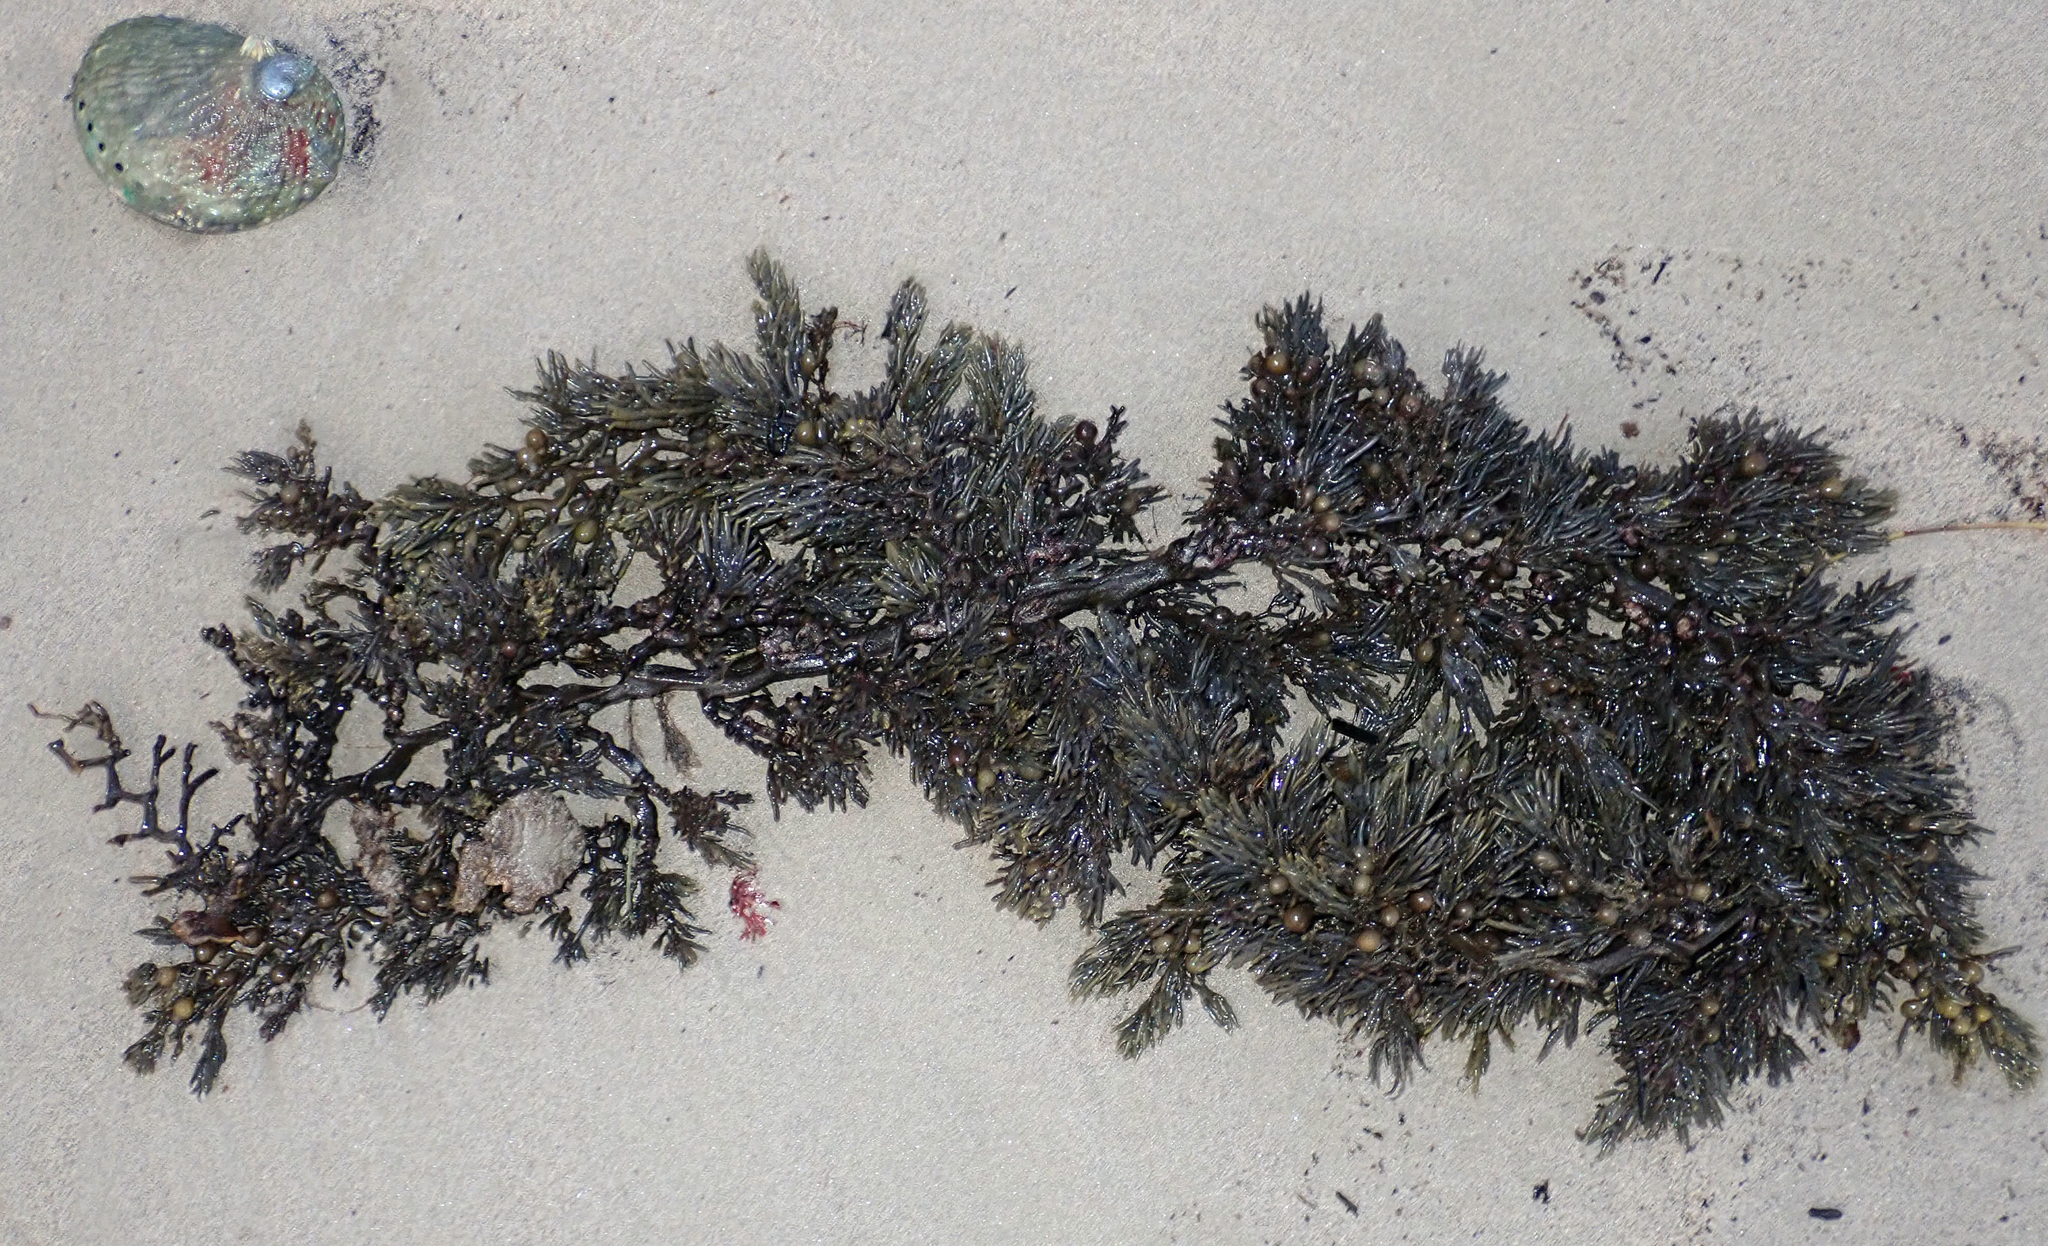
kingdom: Chromista
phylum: Ochrophyta
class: Phaeophyceae
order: Fucales
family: Sargassaceae
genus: Cystophora
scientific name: Cystophora scalaris
